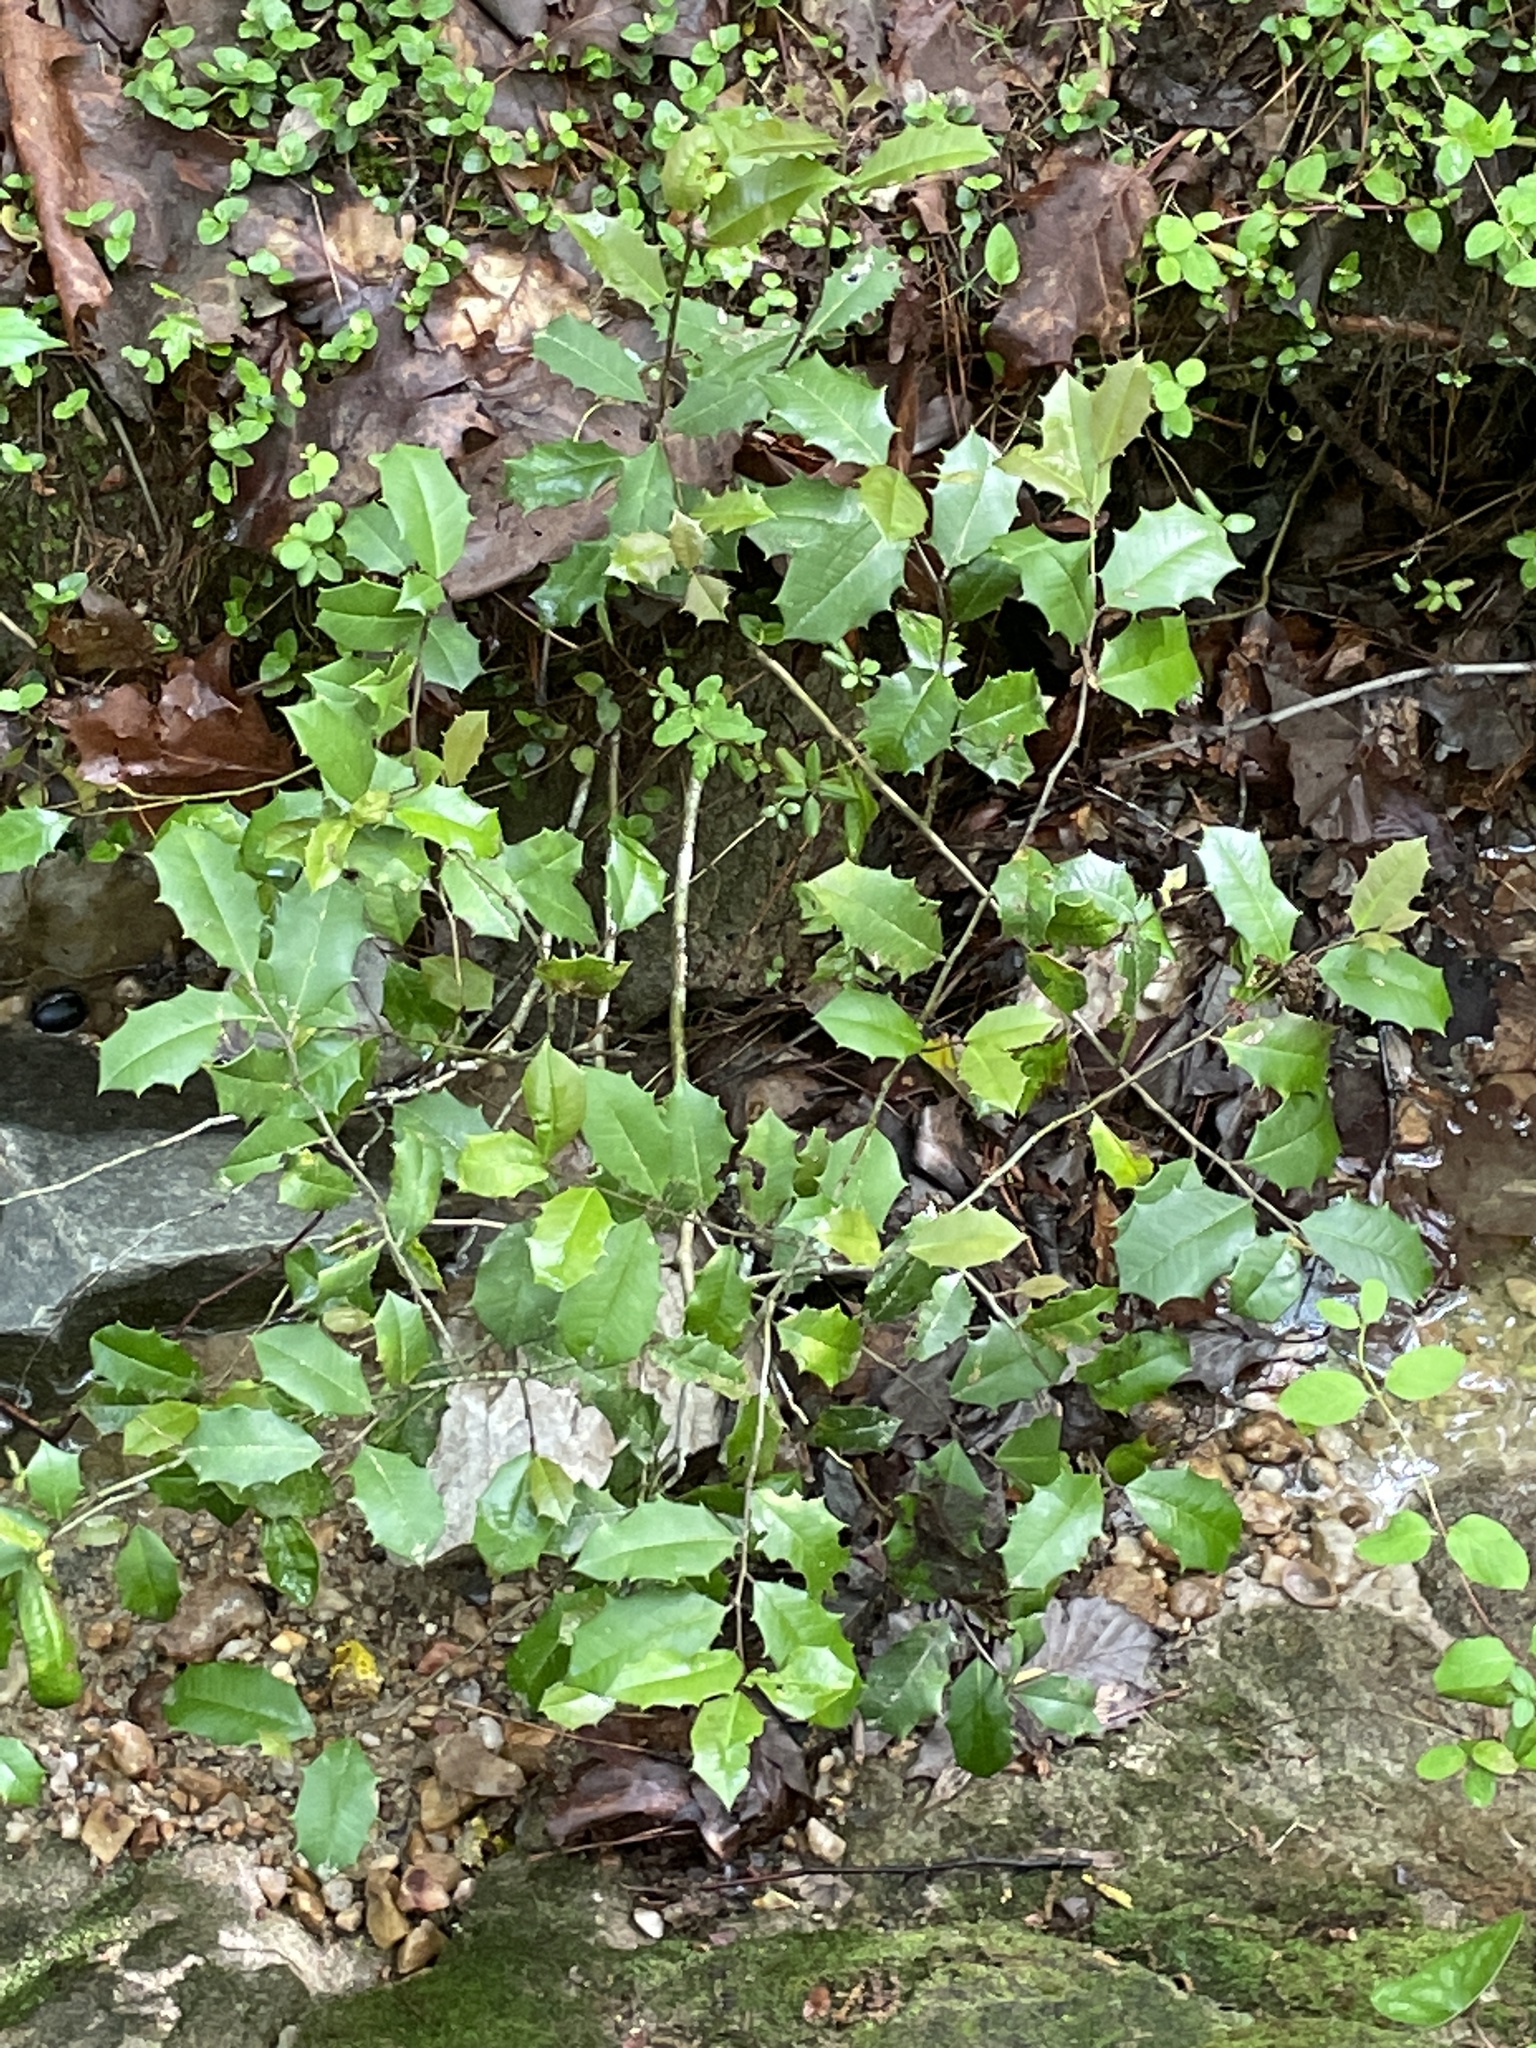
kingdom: Plantae
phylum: Tracheophyta
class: Magnoliopsida
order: Aquifoliales
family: Aquifoliaceae
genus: Ilex
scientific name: Ilex opaca
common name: American holly
